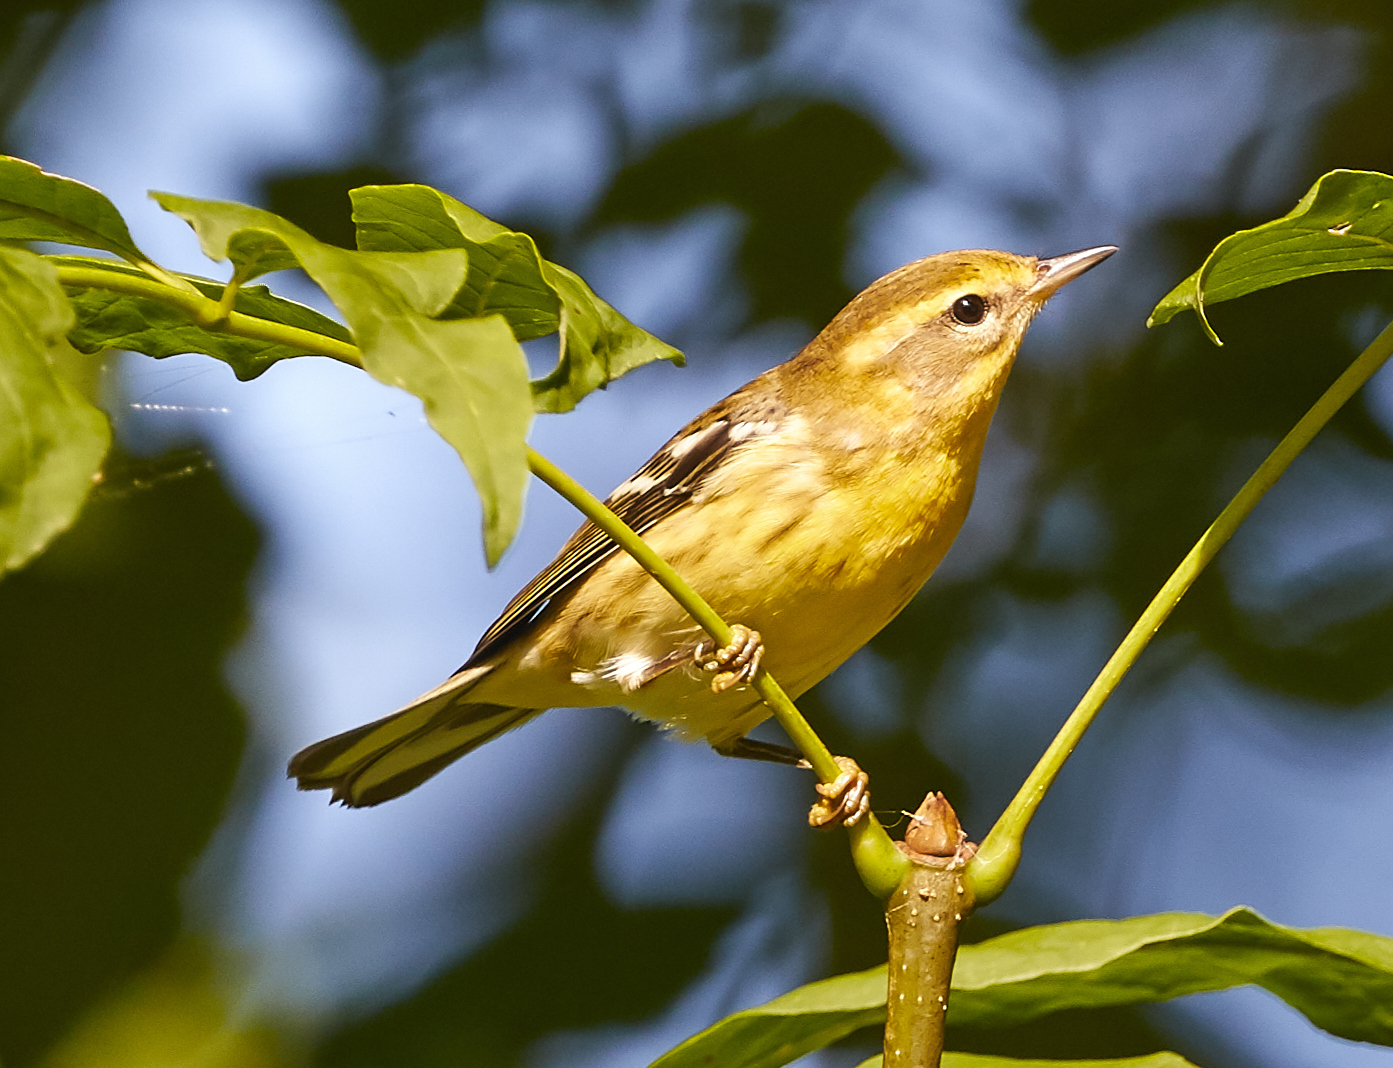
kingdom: Animalia
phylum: Chordata
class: Aves
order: Passeriformes
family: Parulidae
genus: Setophaga
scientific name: Setophaga fusca
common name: Blackburnian warbler
